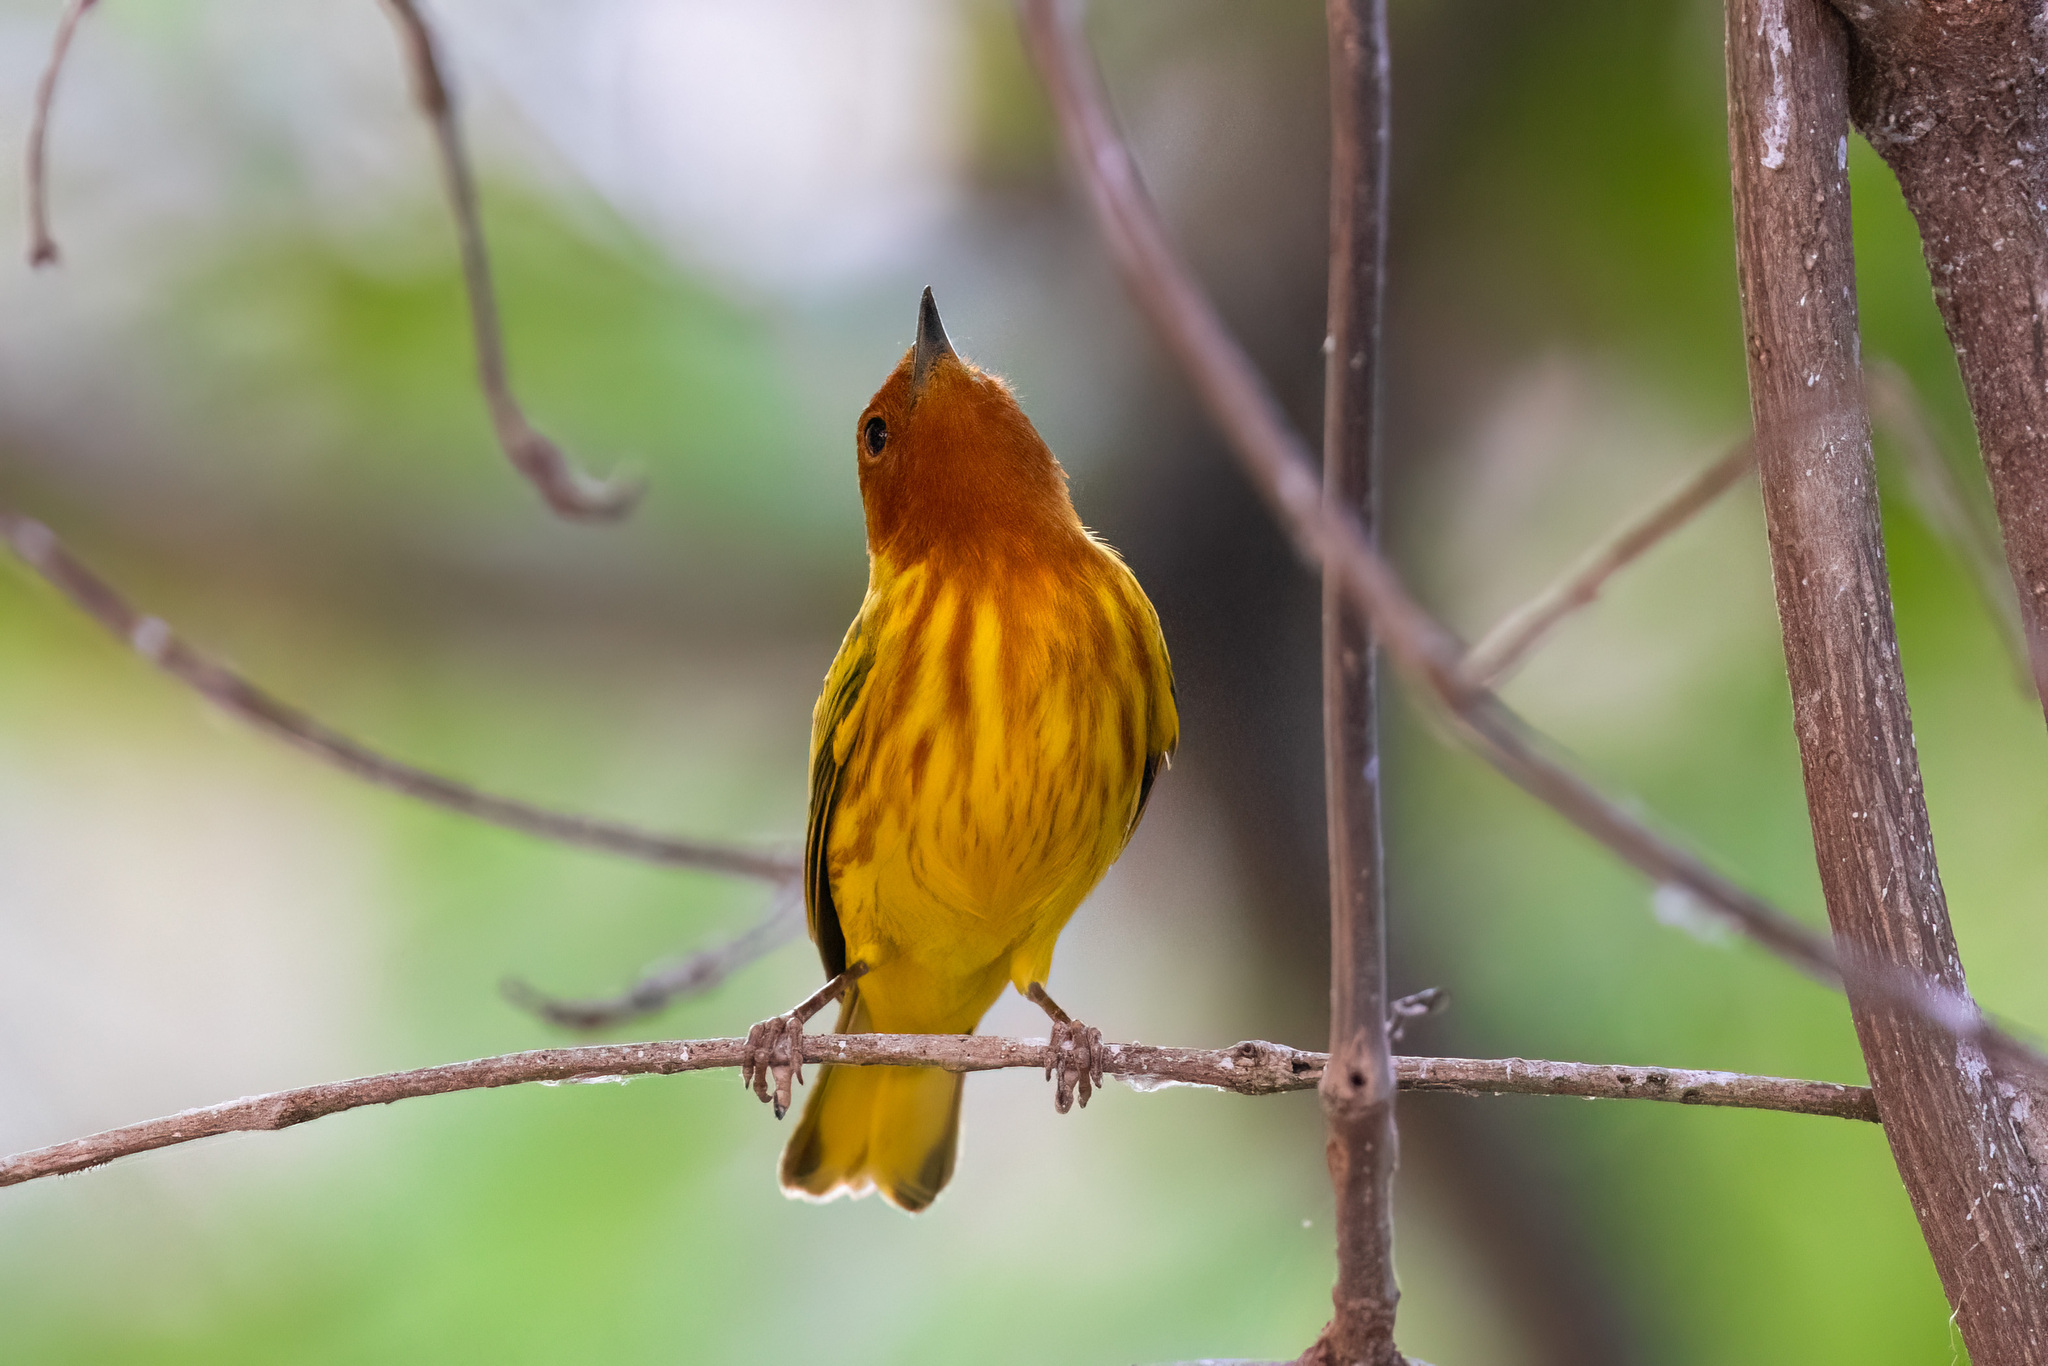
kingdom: Animalia
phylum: Chordata
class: Aves
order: Passeriformes
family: Parulidae
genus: Setophaga
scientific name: Setophaga petechia
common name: Yellow warbler
